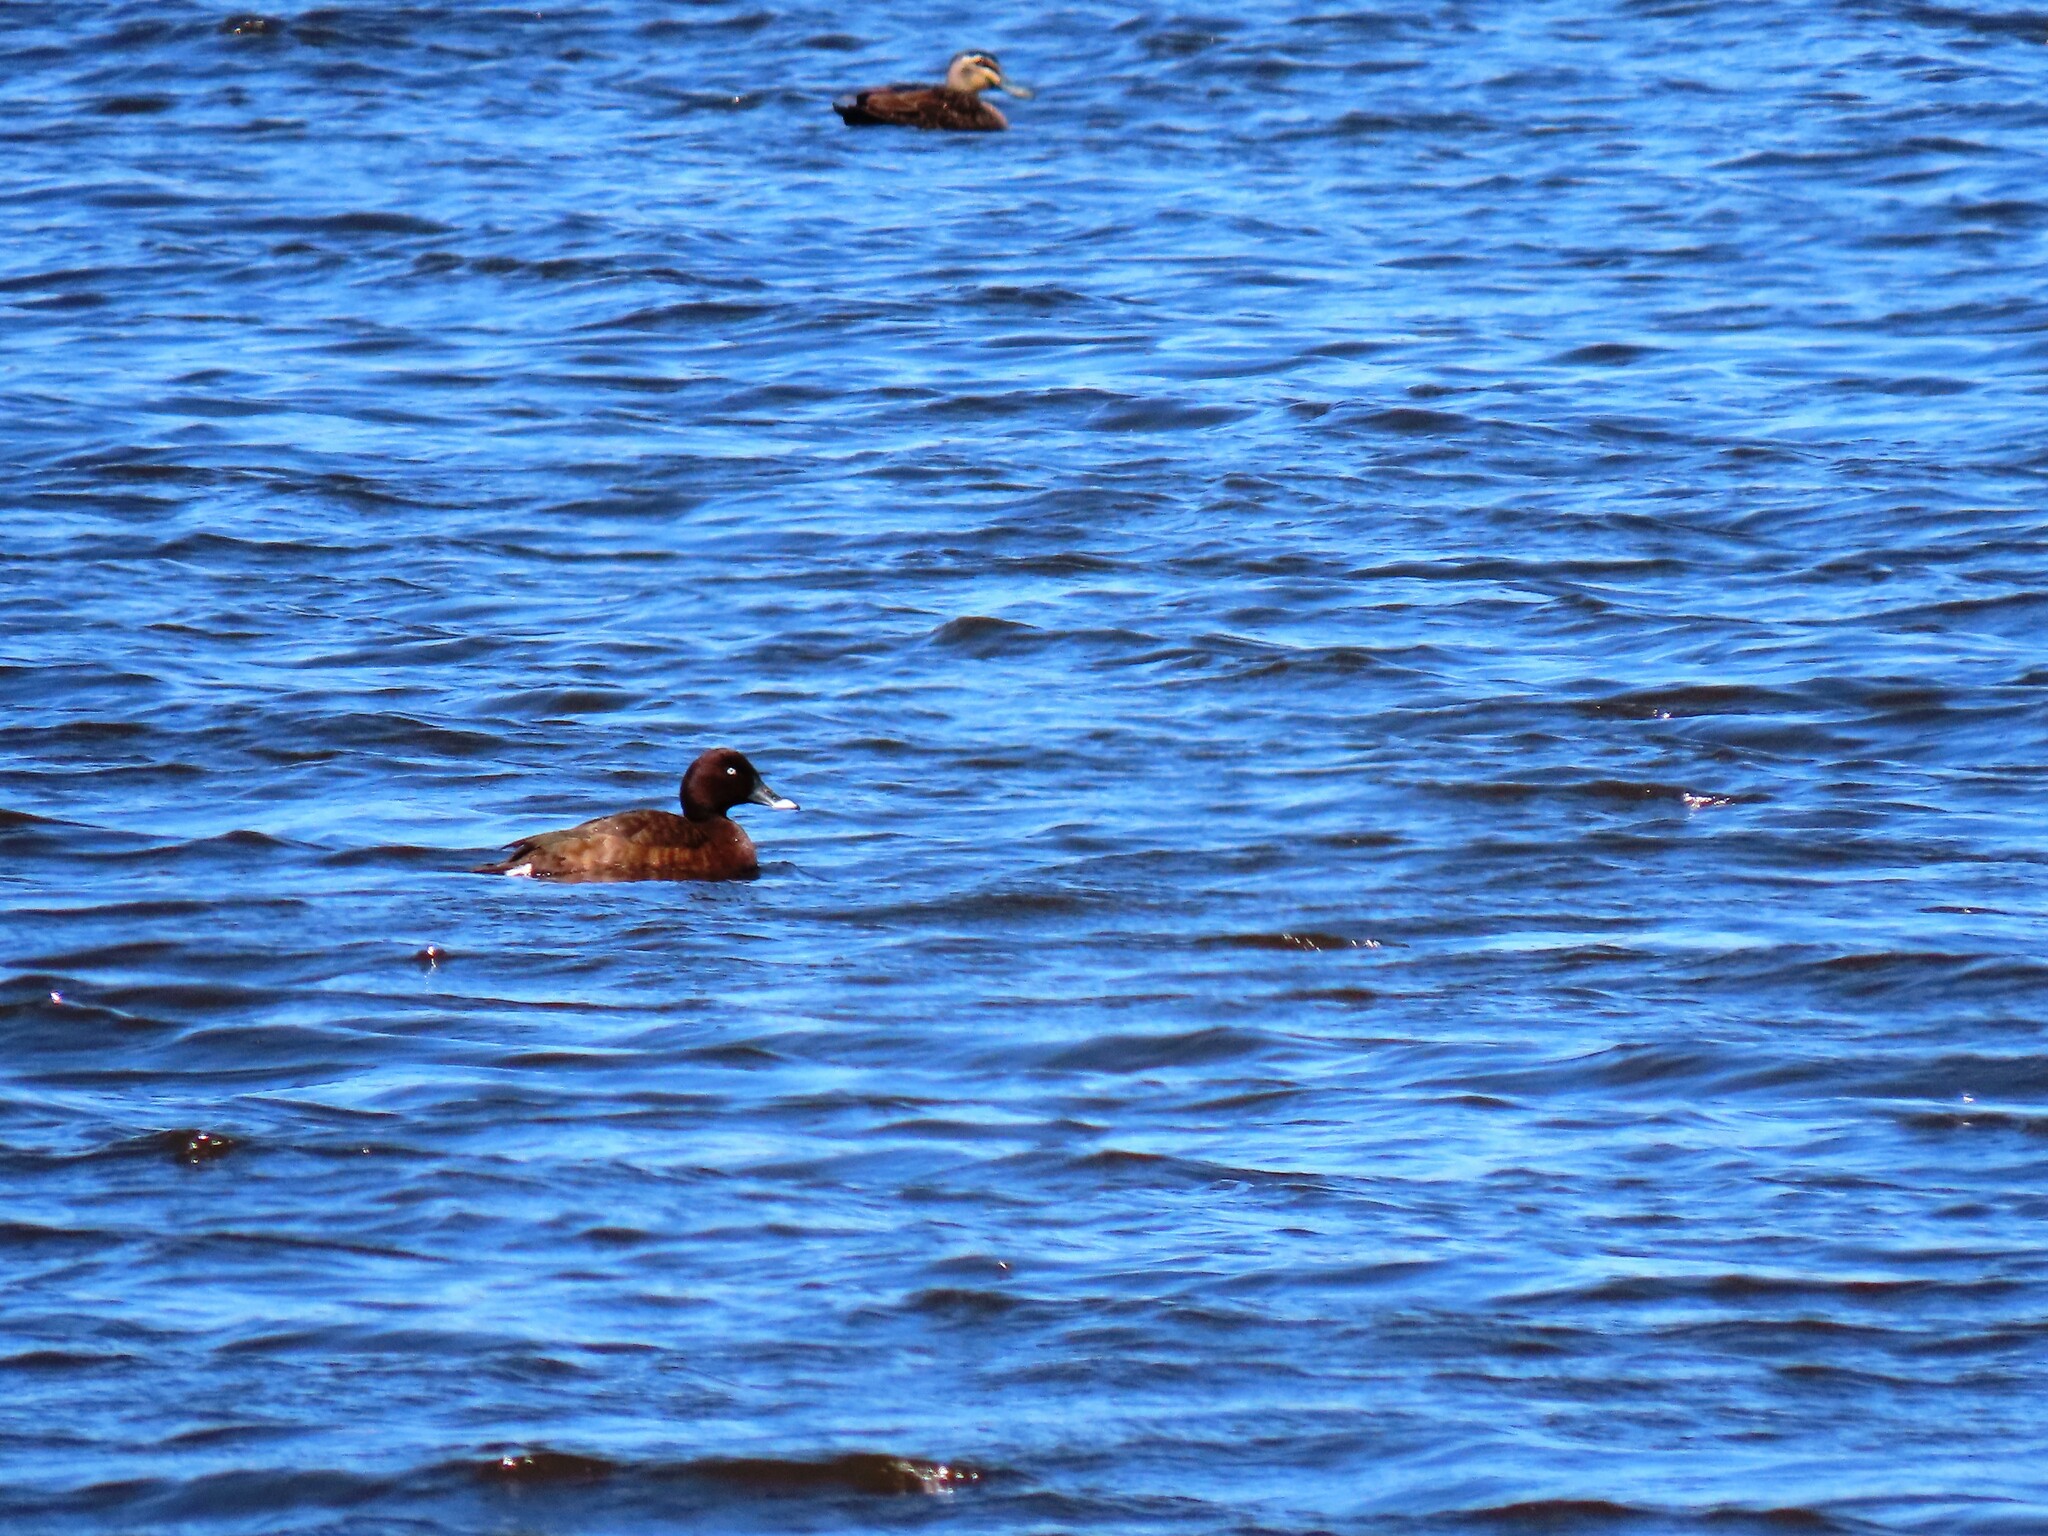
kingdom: Animalia
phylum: Chordata
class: Aves
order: Anseriformes
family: Anatidae
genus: Aythya
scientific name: Aythya australis
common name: Hardhead
